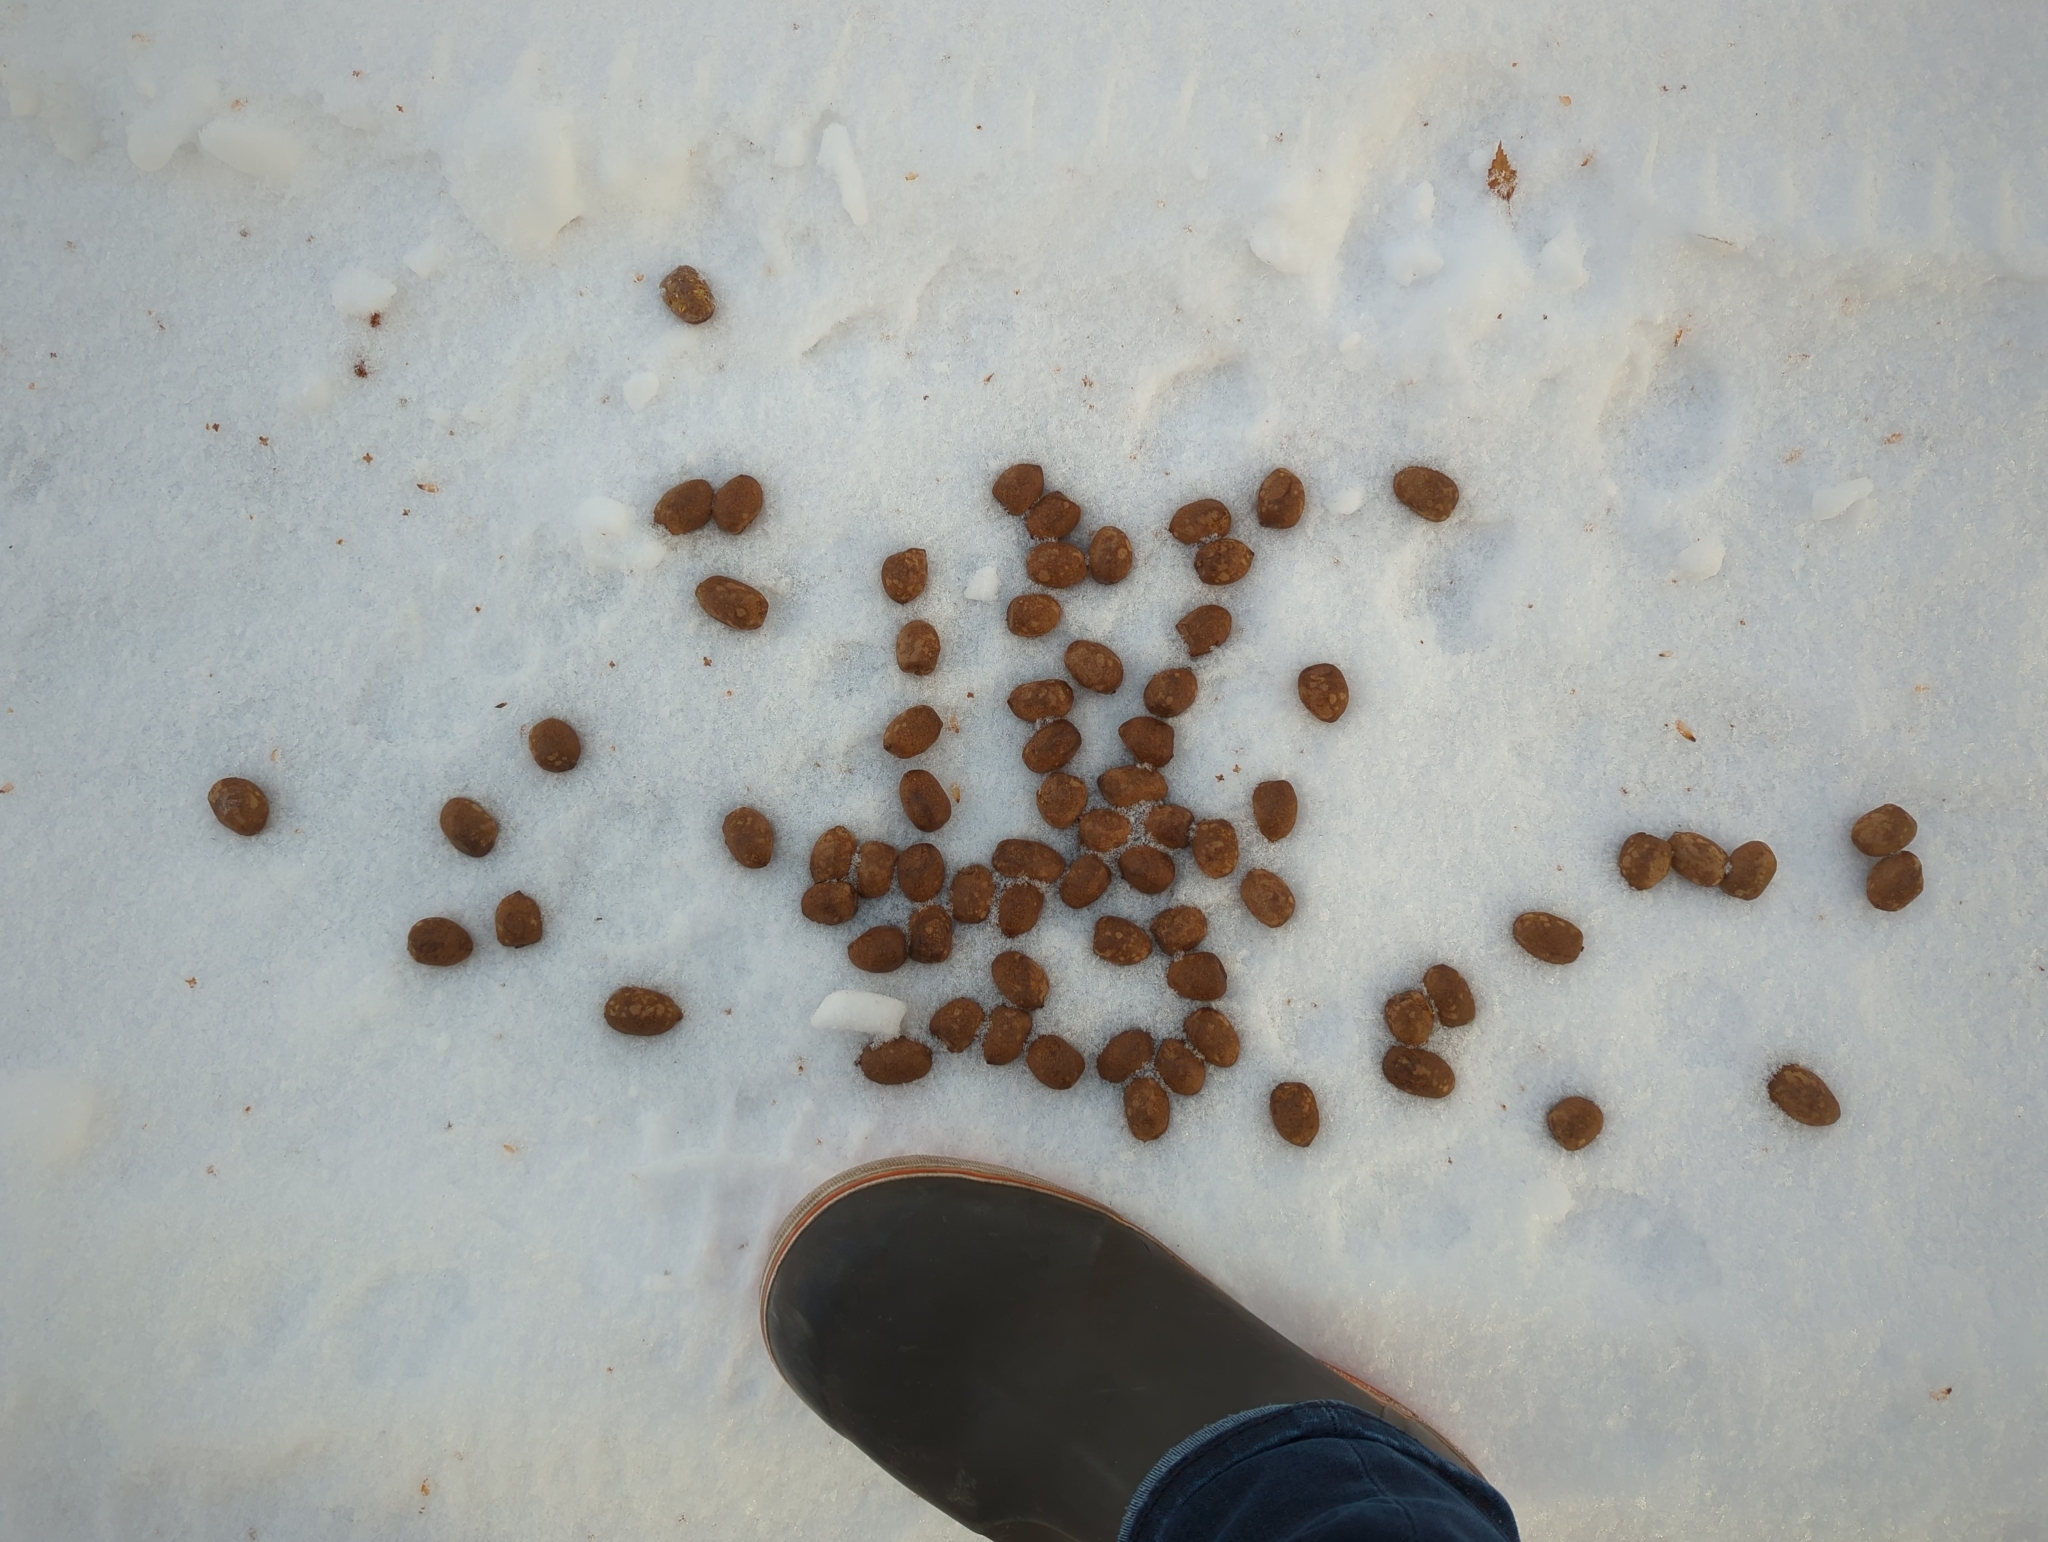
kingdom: Animalia
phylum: Chordata
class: Mammalia
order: Artiodactyla
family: Cervidae
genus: Alces
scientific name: Alces alces
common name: Moose
